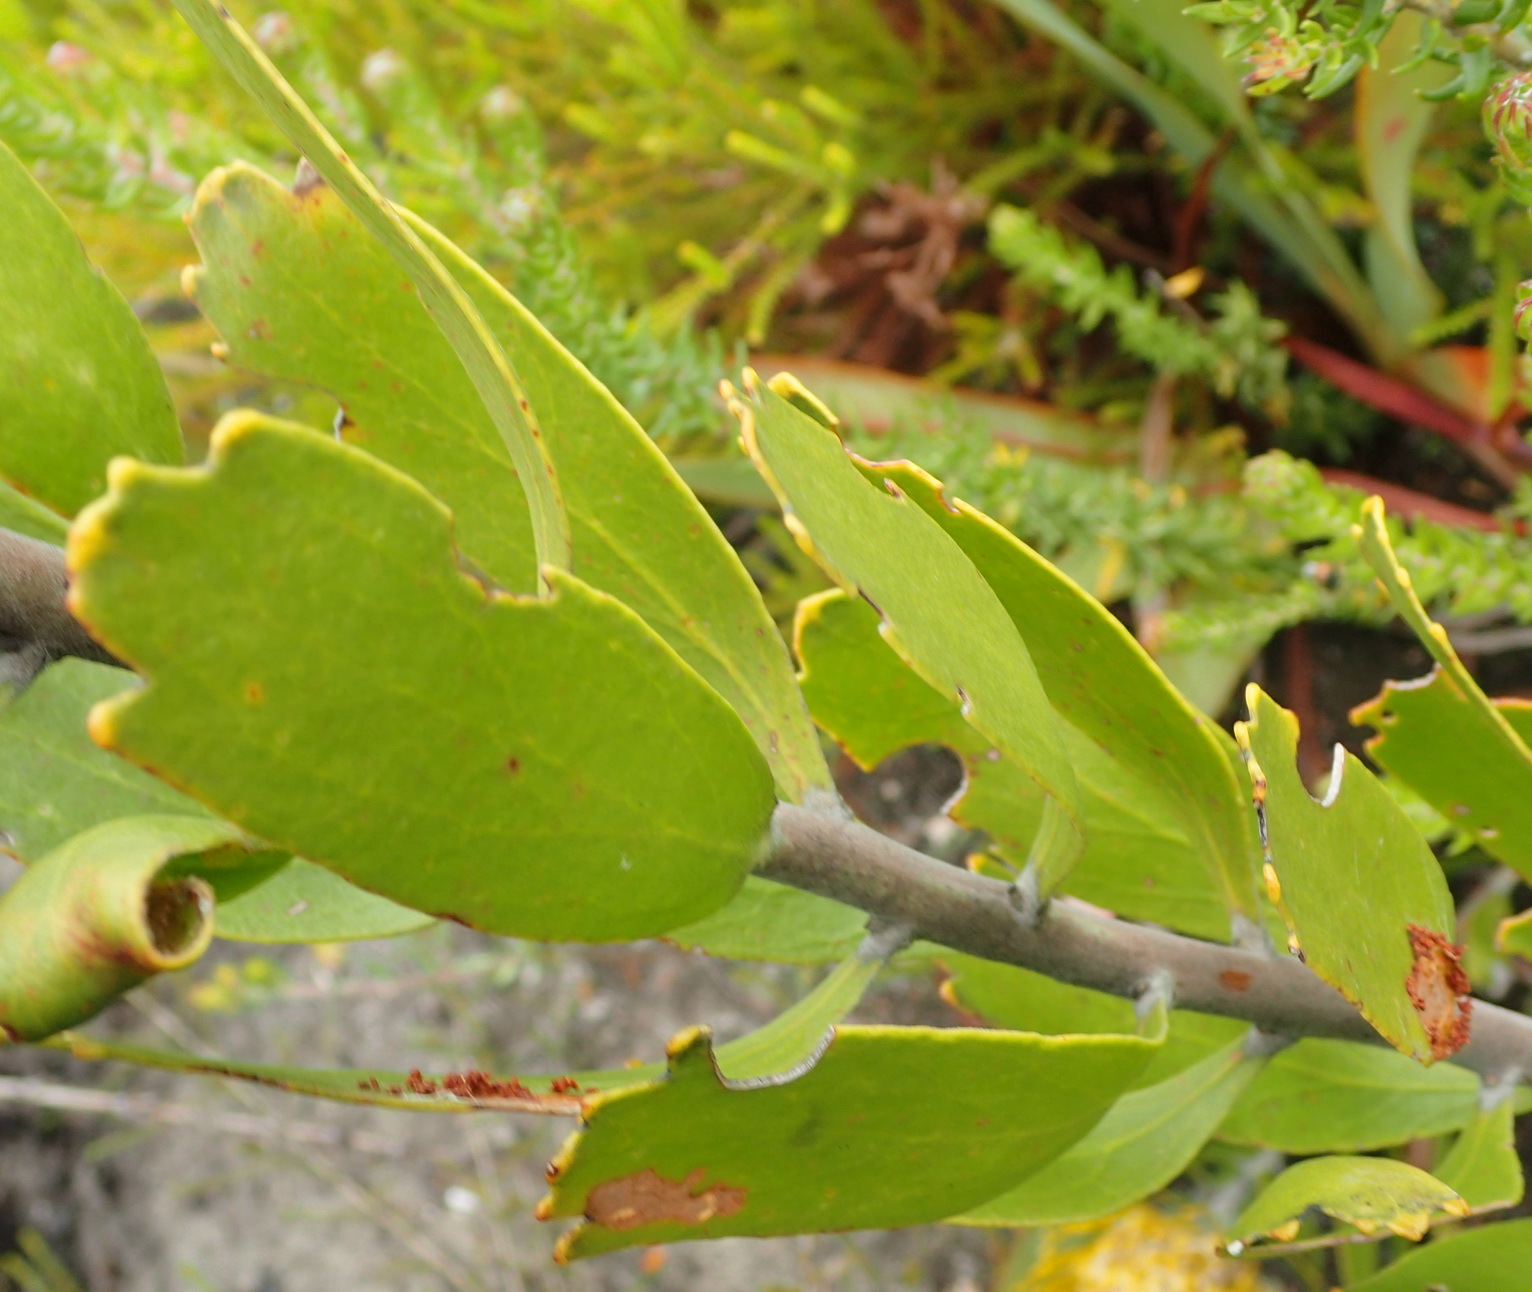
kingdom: Plantae
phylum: Tracheophyta
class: Magnoliopsida
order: Proteales
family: Proteaceae
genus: Leucospermum
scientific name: Leucospermum cuneiforme
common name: Common pincushion
